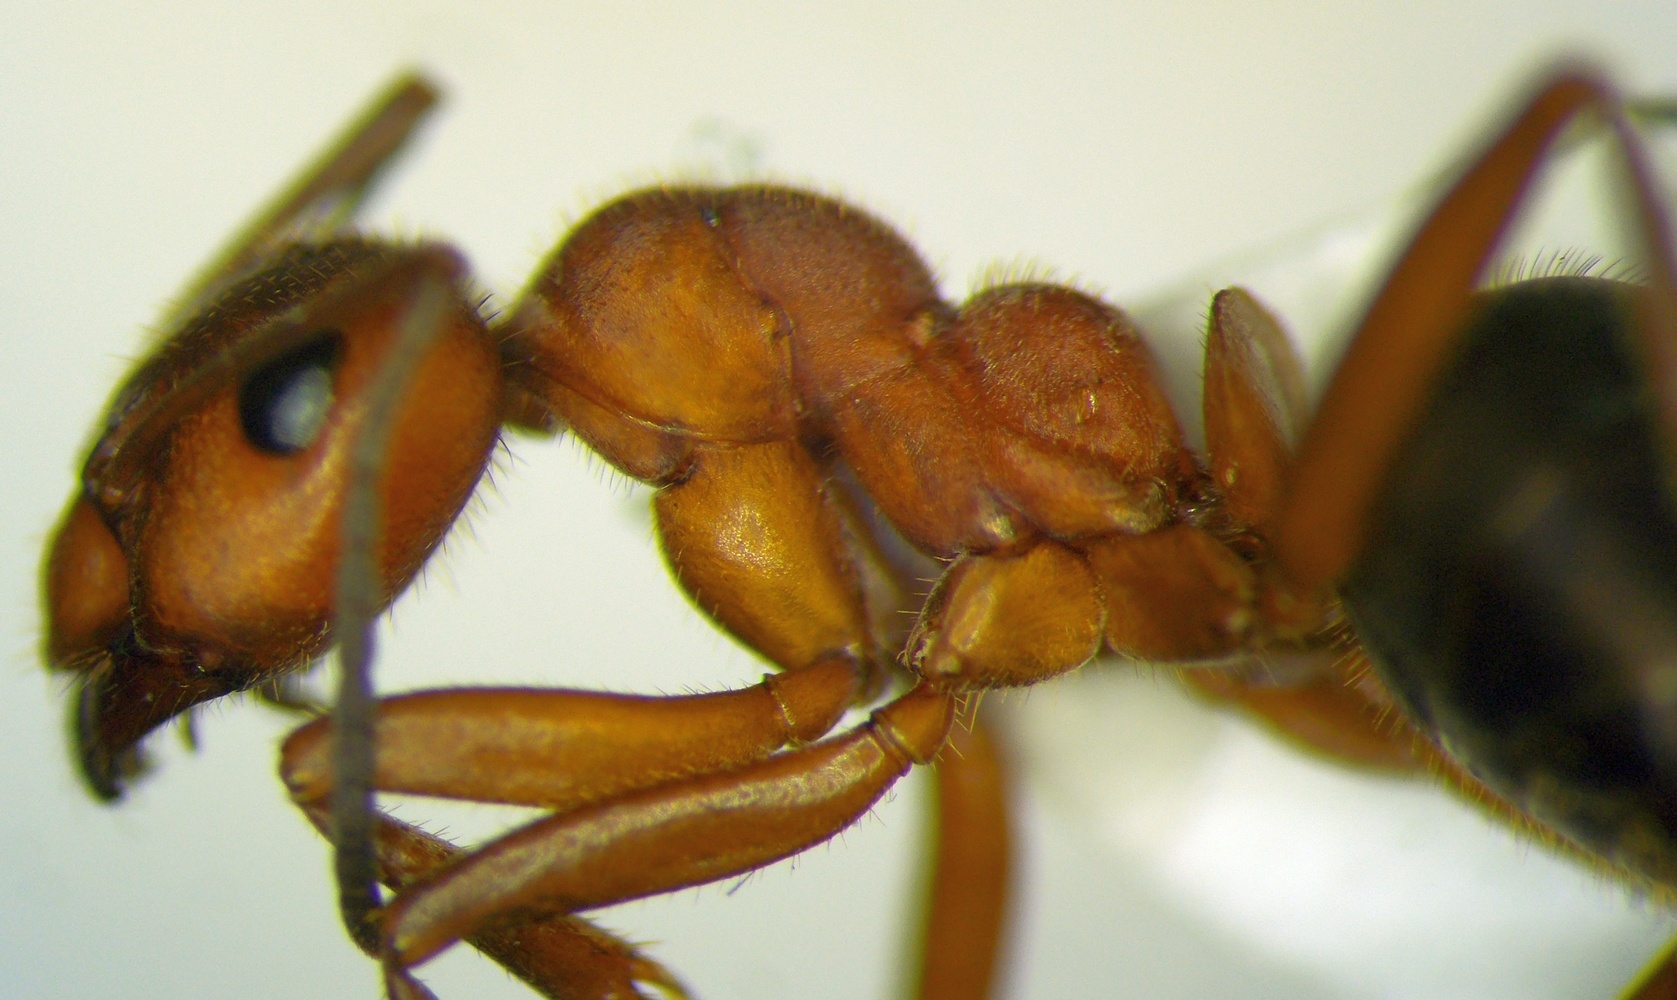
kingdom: Animalia
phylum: Arthropoda
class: Insecta
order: Hymenoptera
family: Formicidae
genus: Formica
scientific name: Formica truncorum
